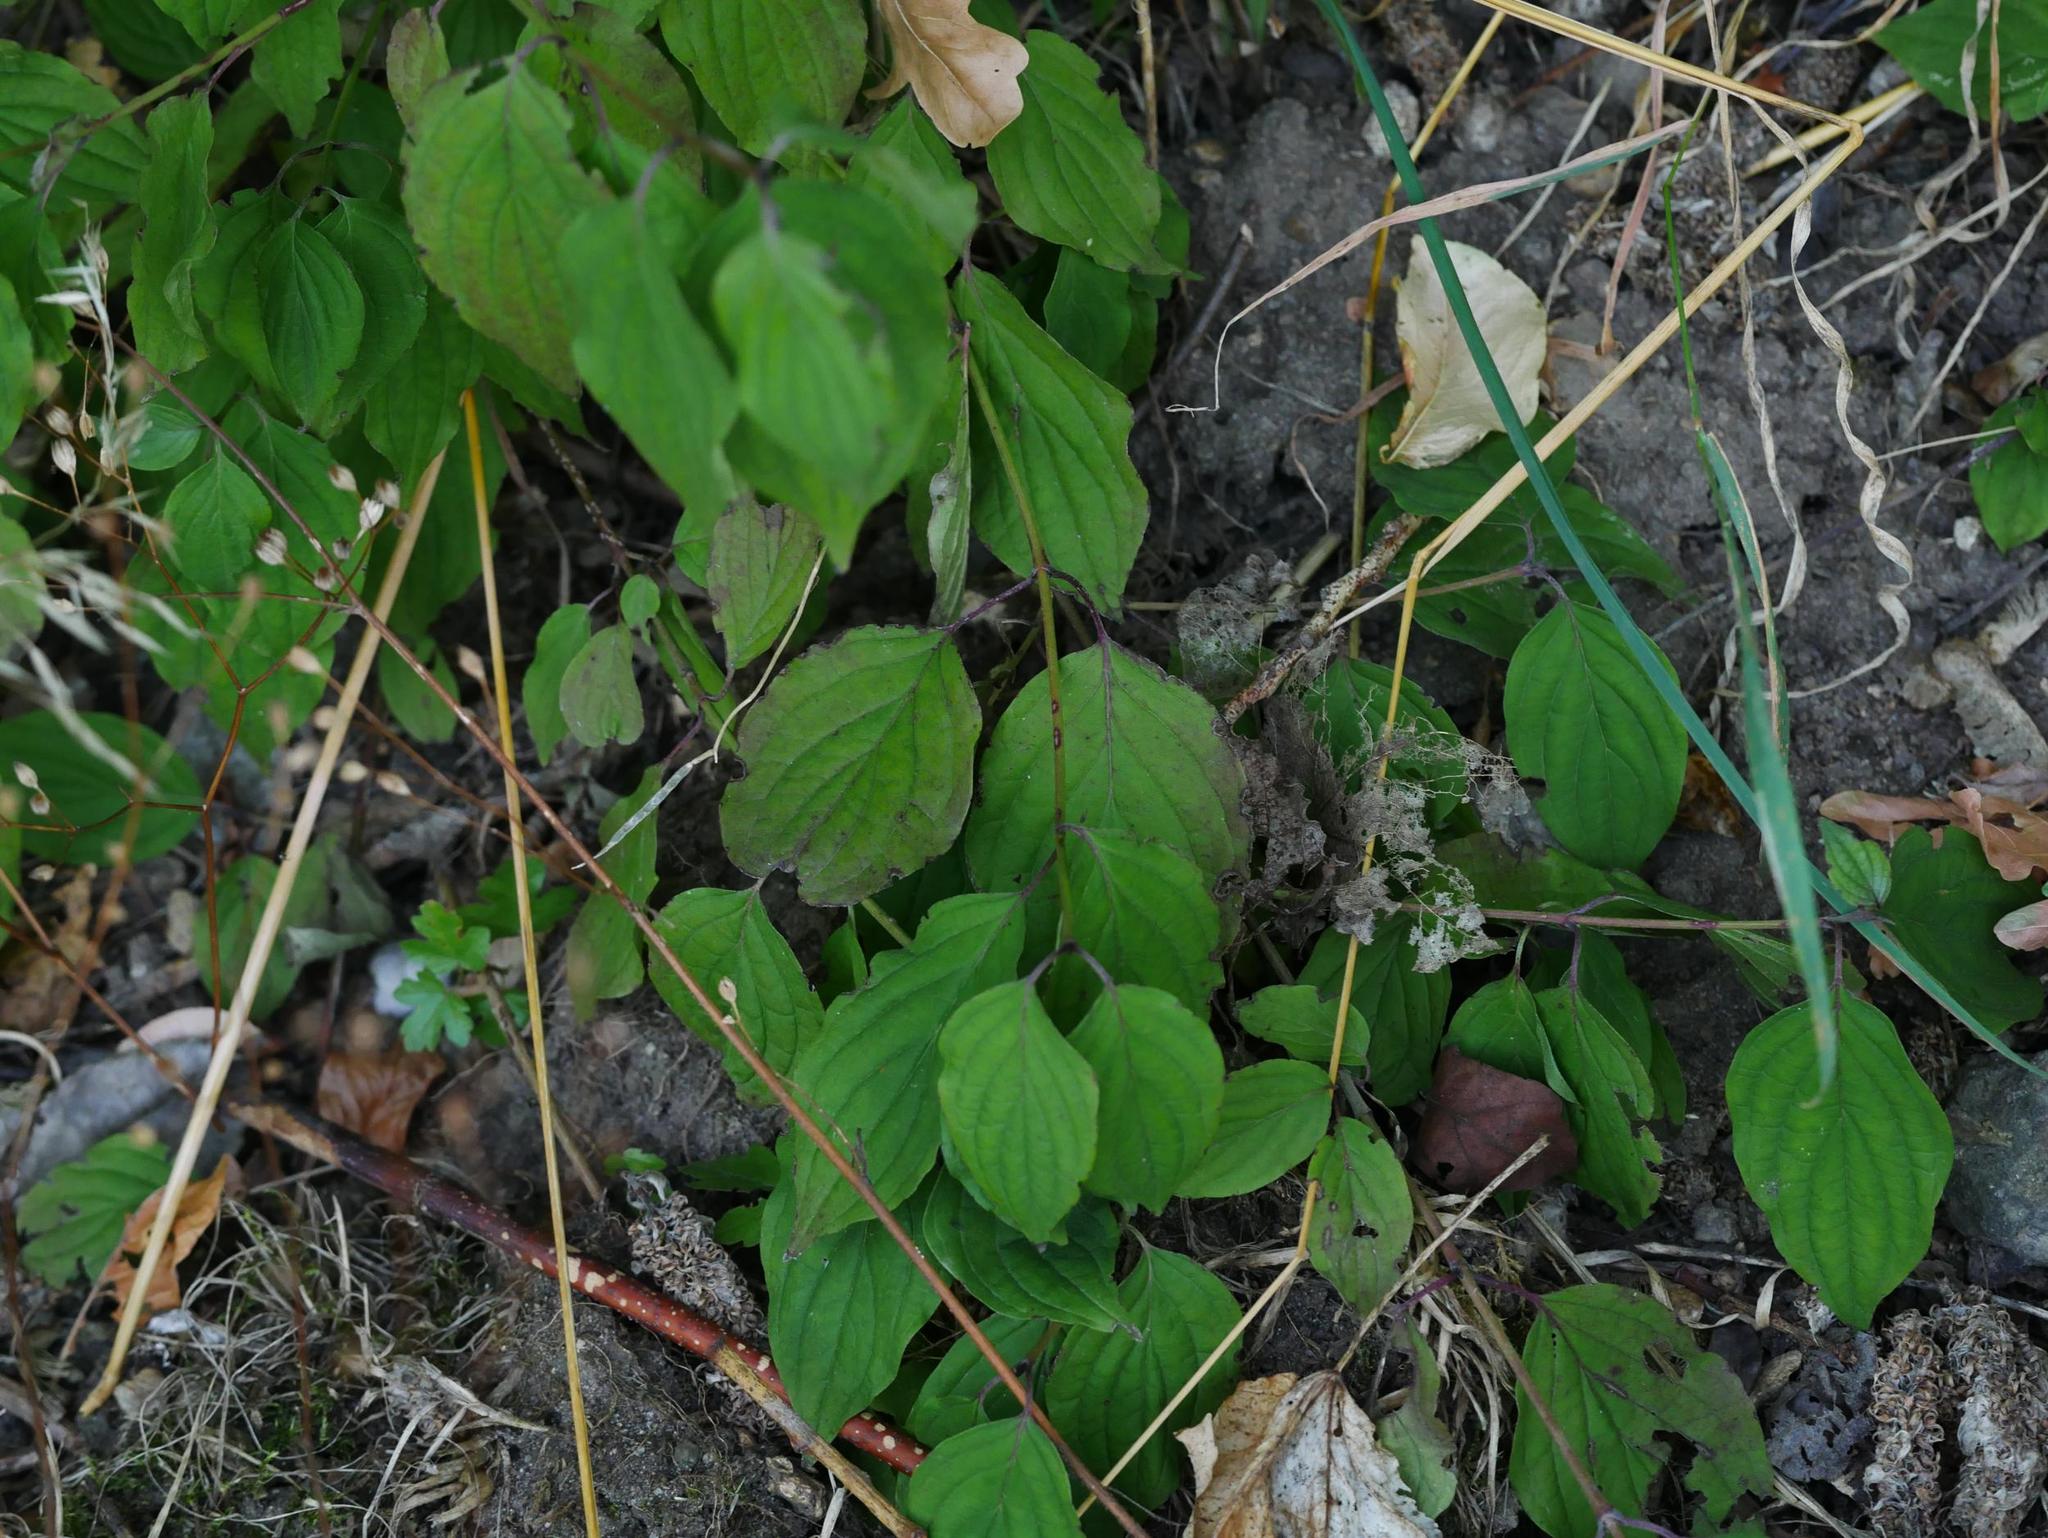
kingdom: Plantae
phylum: Tracheophyta
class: Magnoliopsida
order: Cornales
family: Cornaceae
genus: Cornus
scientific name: Cornus sanguinea
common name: Dogwood
